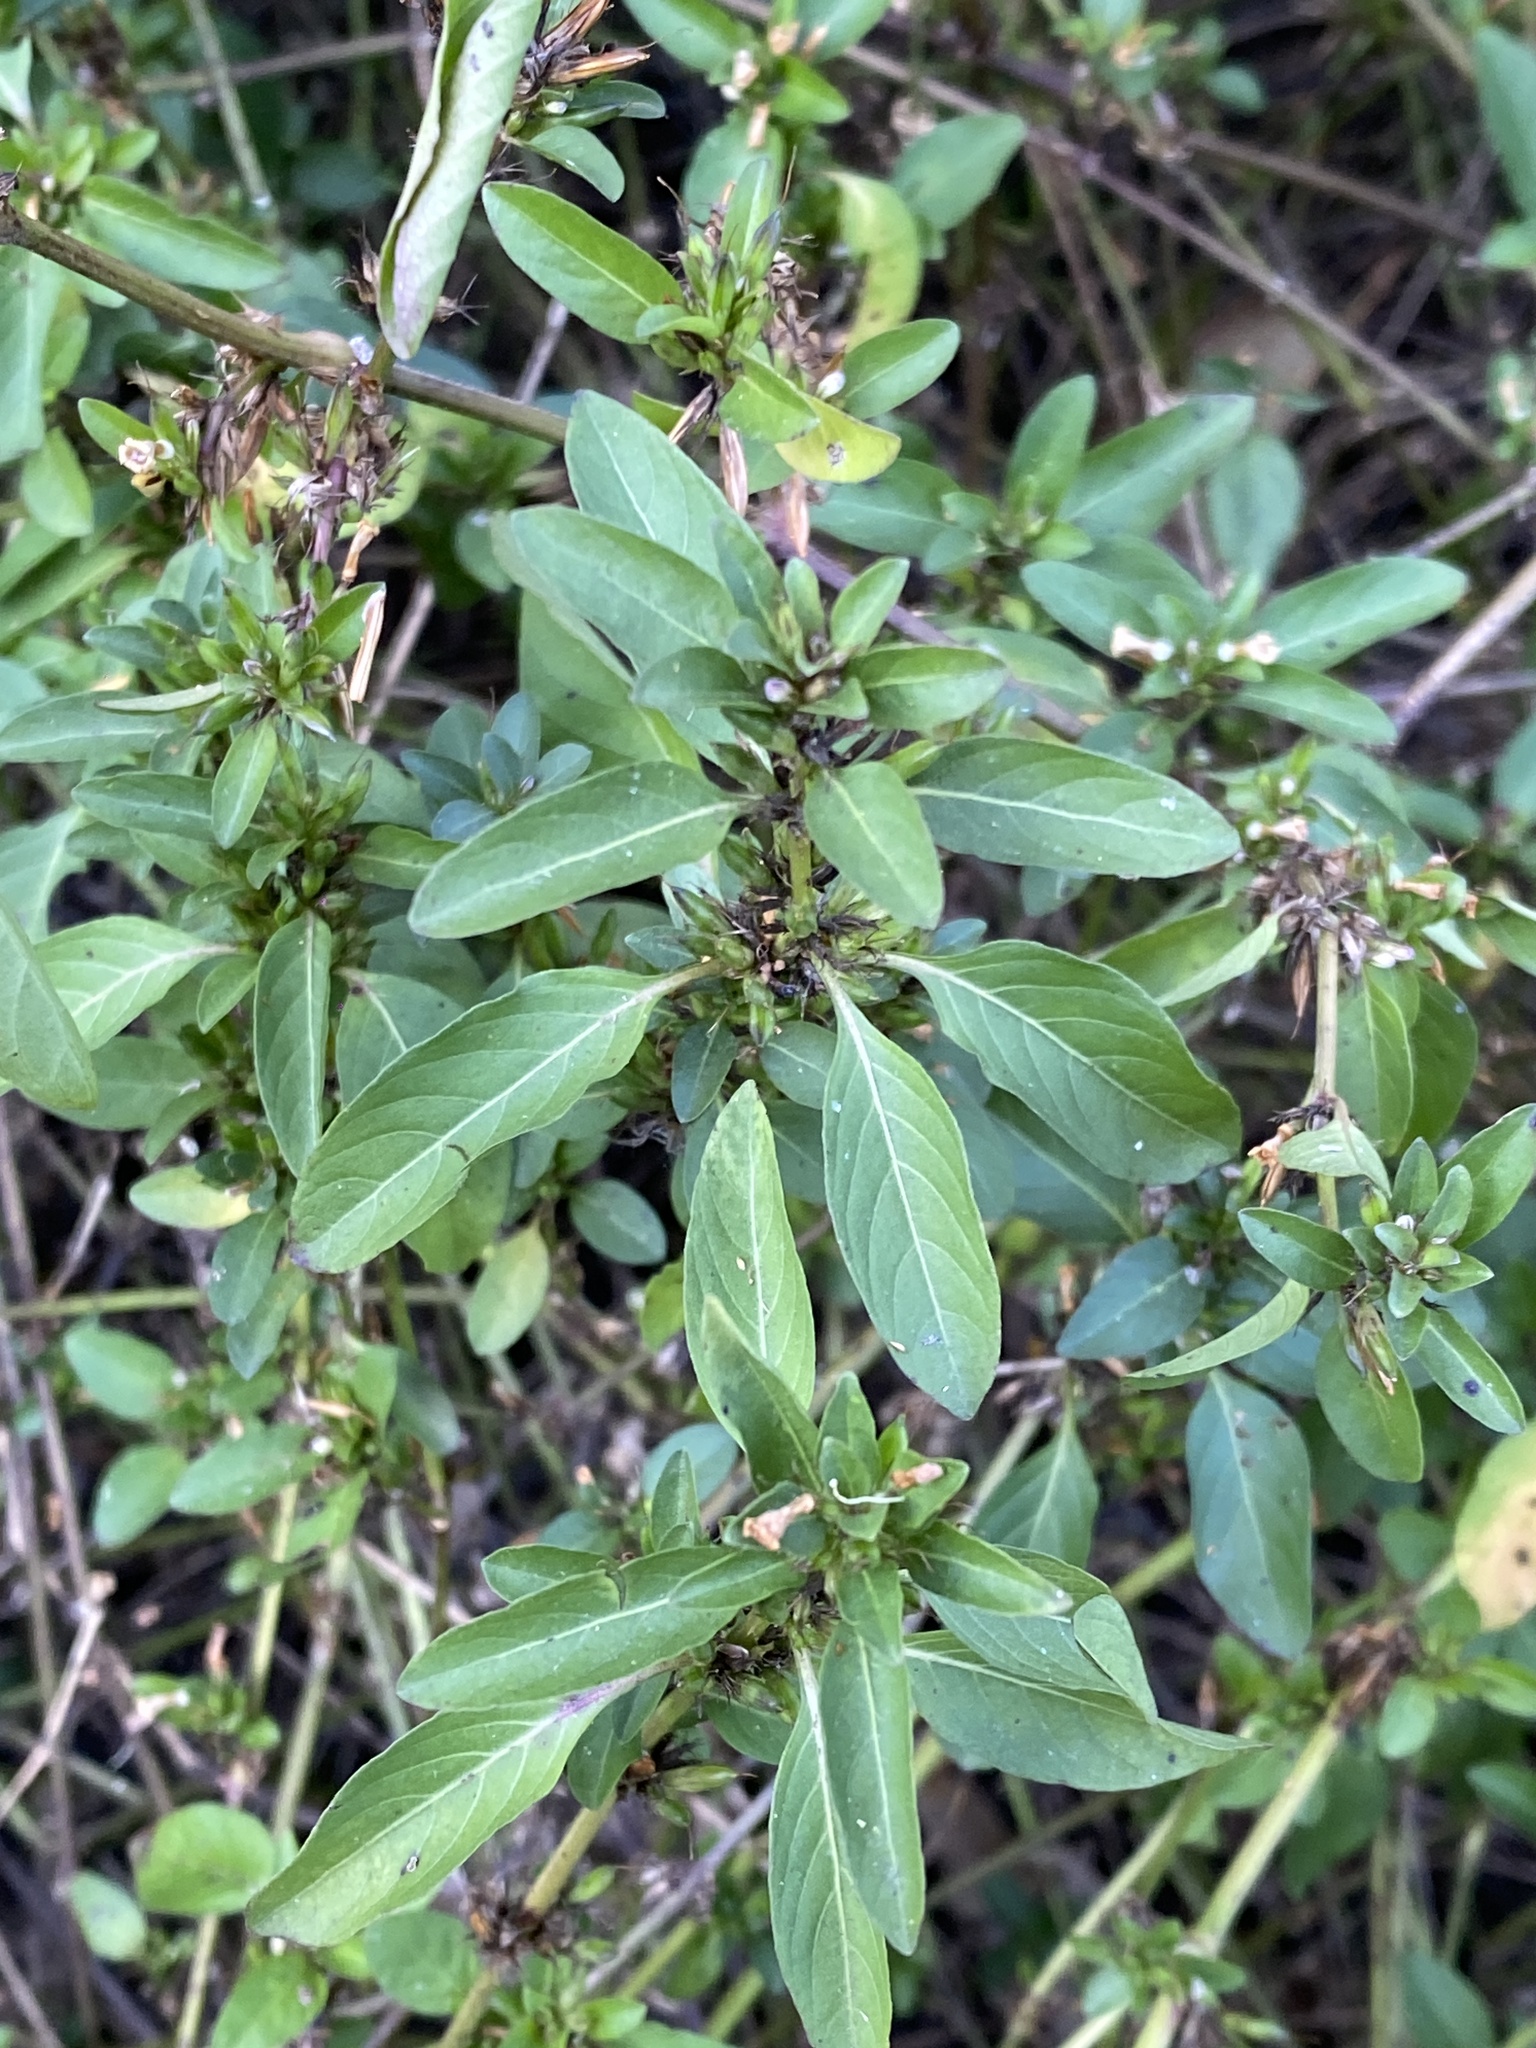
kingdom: Plantae
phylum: Tracheophyta
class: Magnoliopsida
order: Lamiales
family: Acanthaceae
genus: Hygrophila
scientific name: Hygrophila erecta
